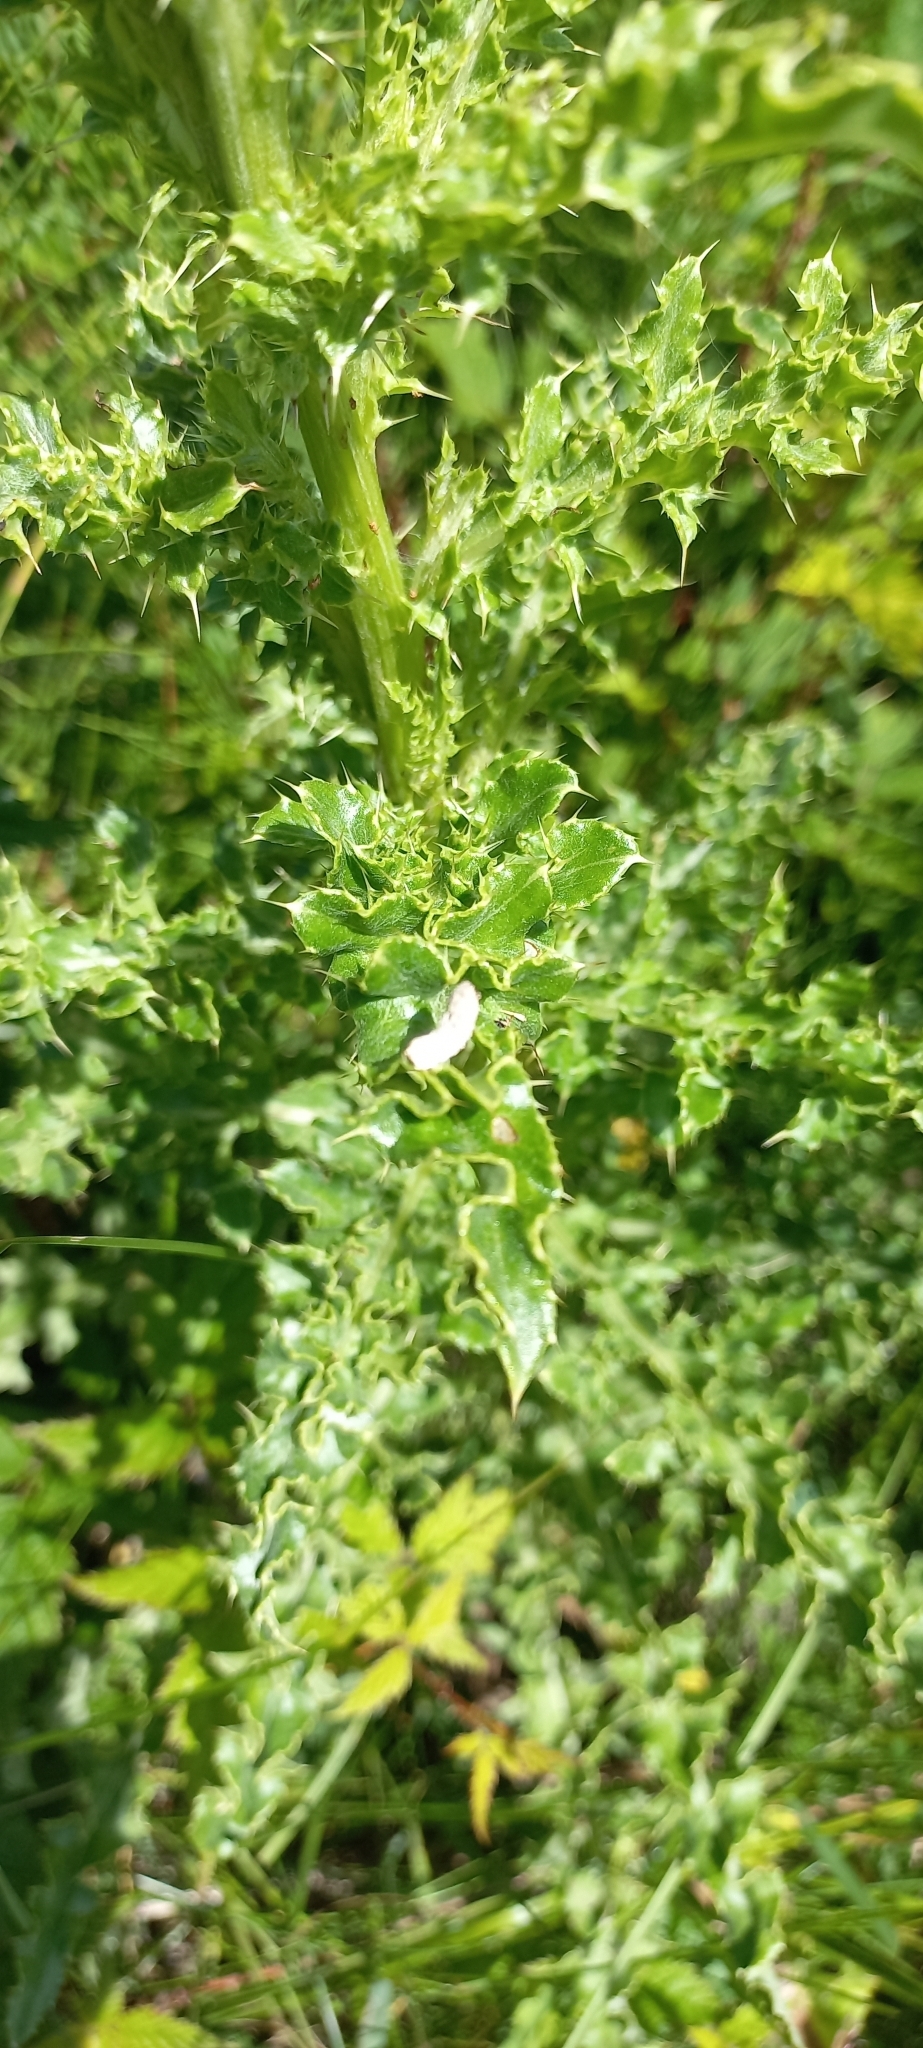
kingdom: Plantae
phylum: Tracheophyta
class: Magnoliopsida
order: Asterales
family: Asteraceae
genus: Cirsium
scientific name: Cirsium arvense
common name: Creeping thistle
